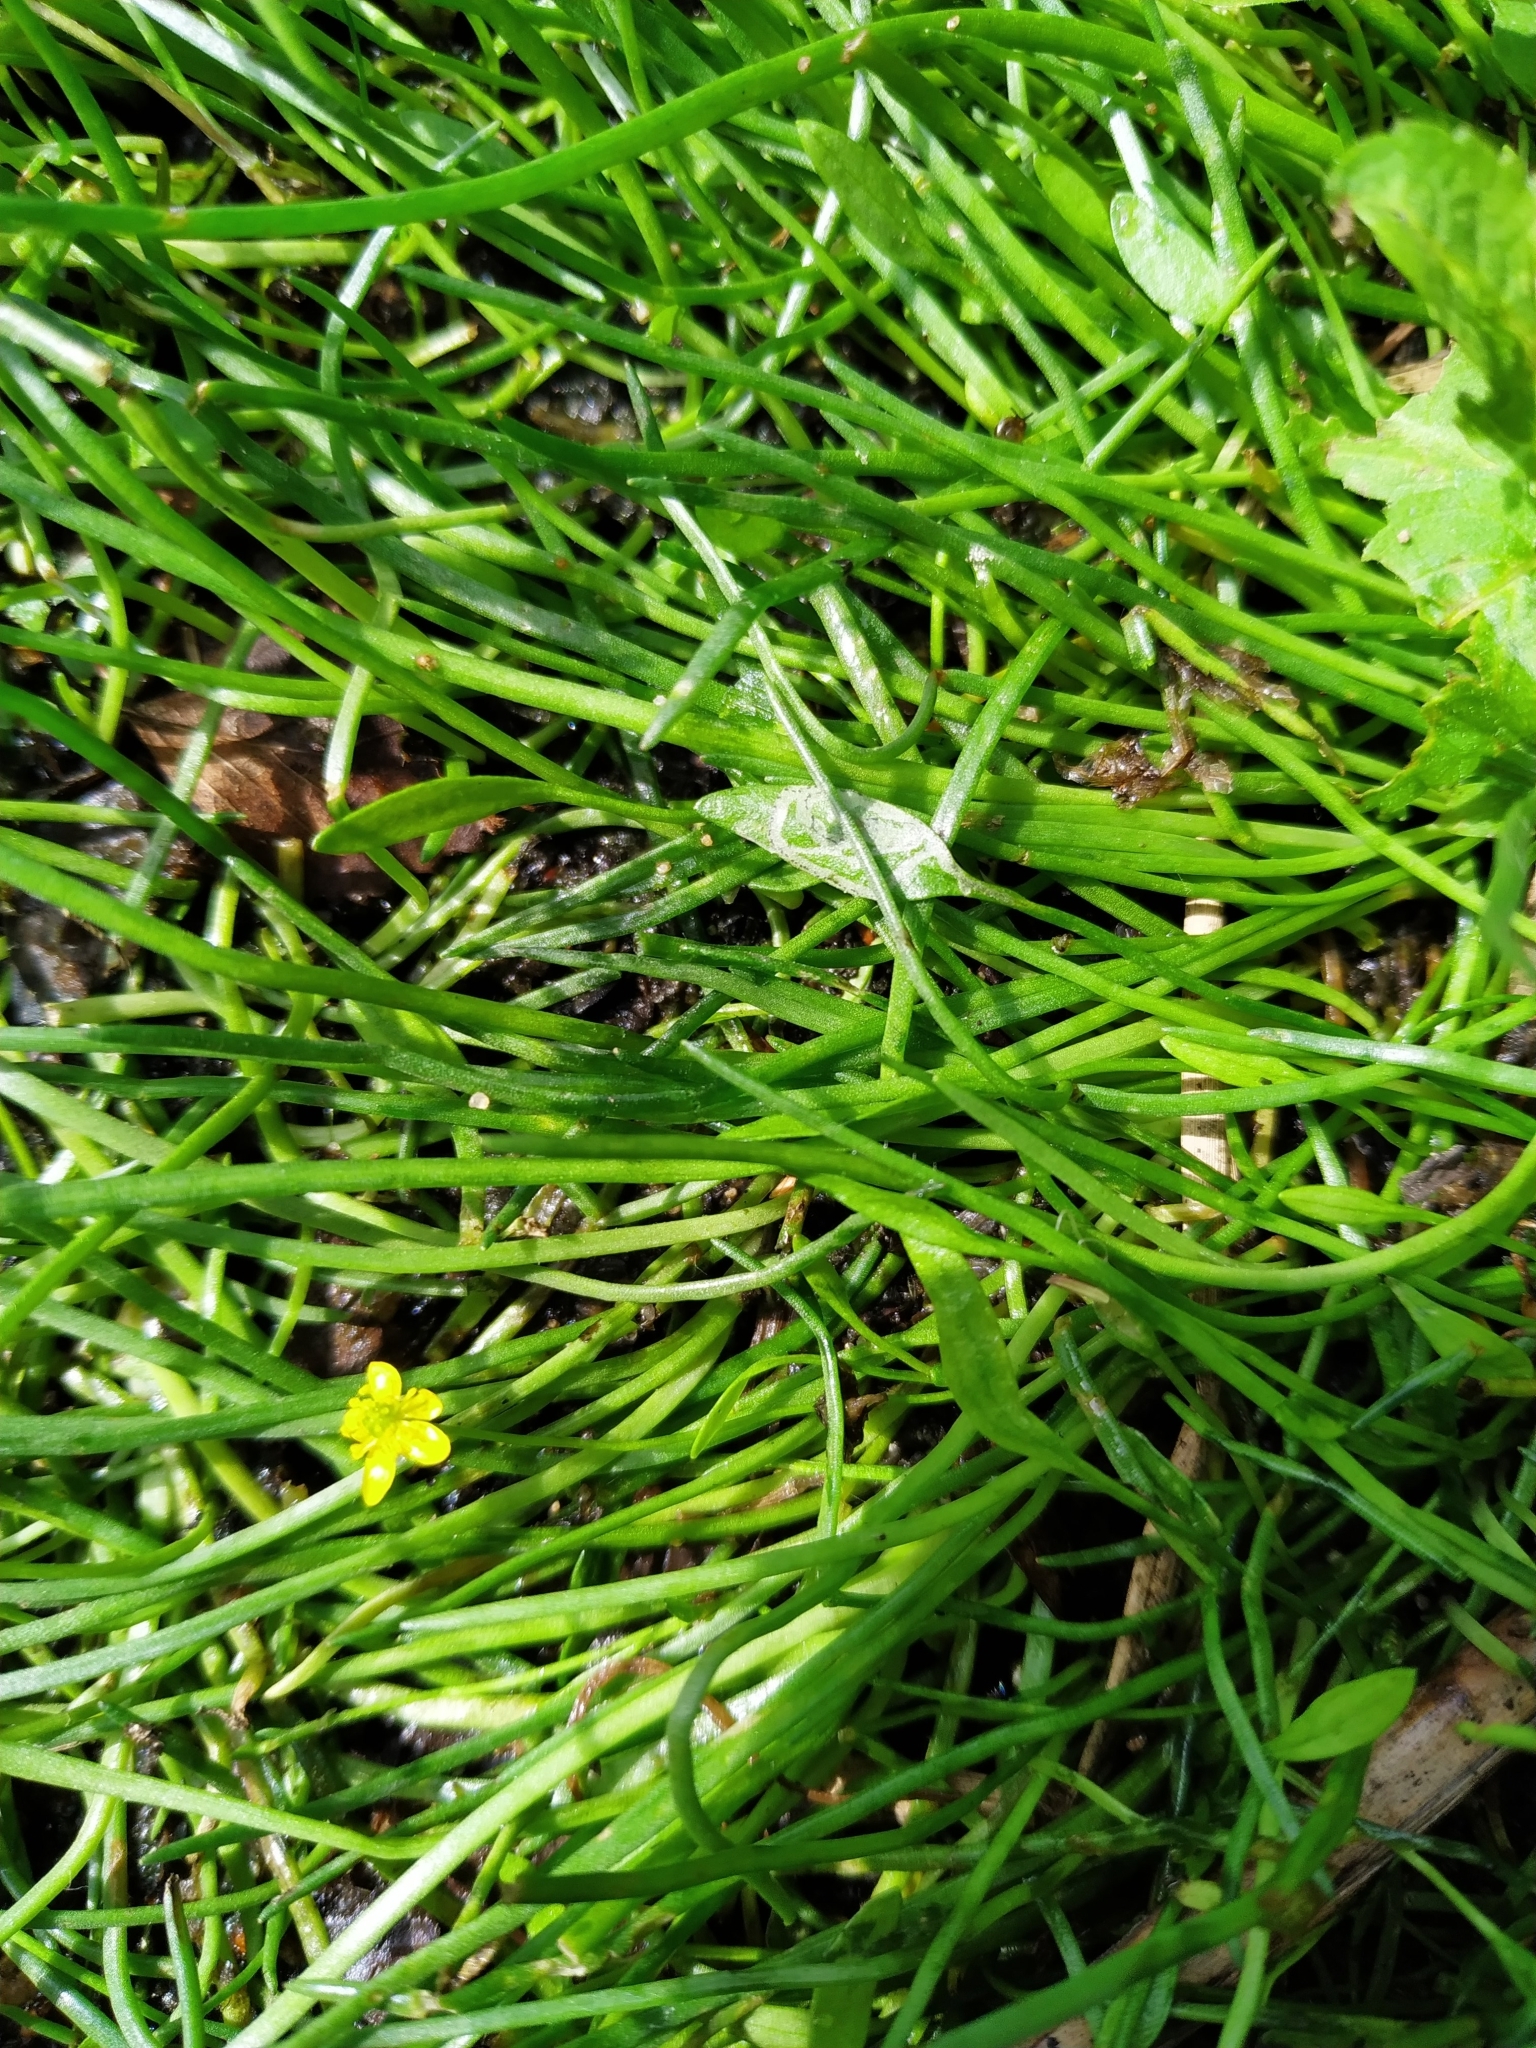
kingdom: Plantae
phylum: Tracheophyta
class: Magnoliopsida
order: Ranunculales
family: Ranunculaceae
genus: Ranunculus
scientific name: Ranunculus flammula
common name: Lesser spearwort
